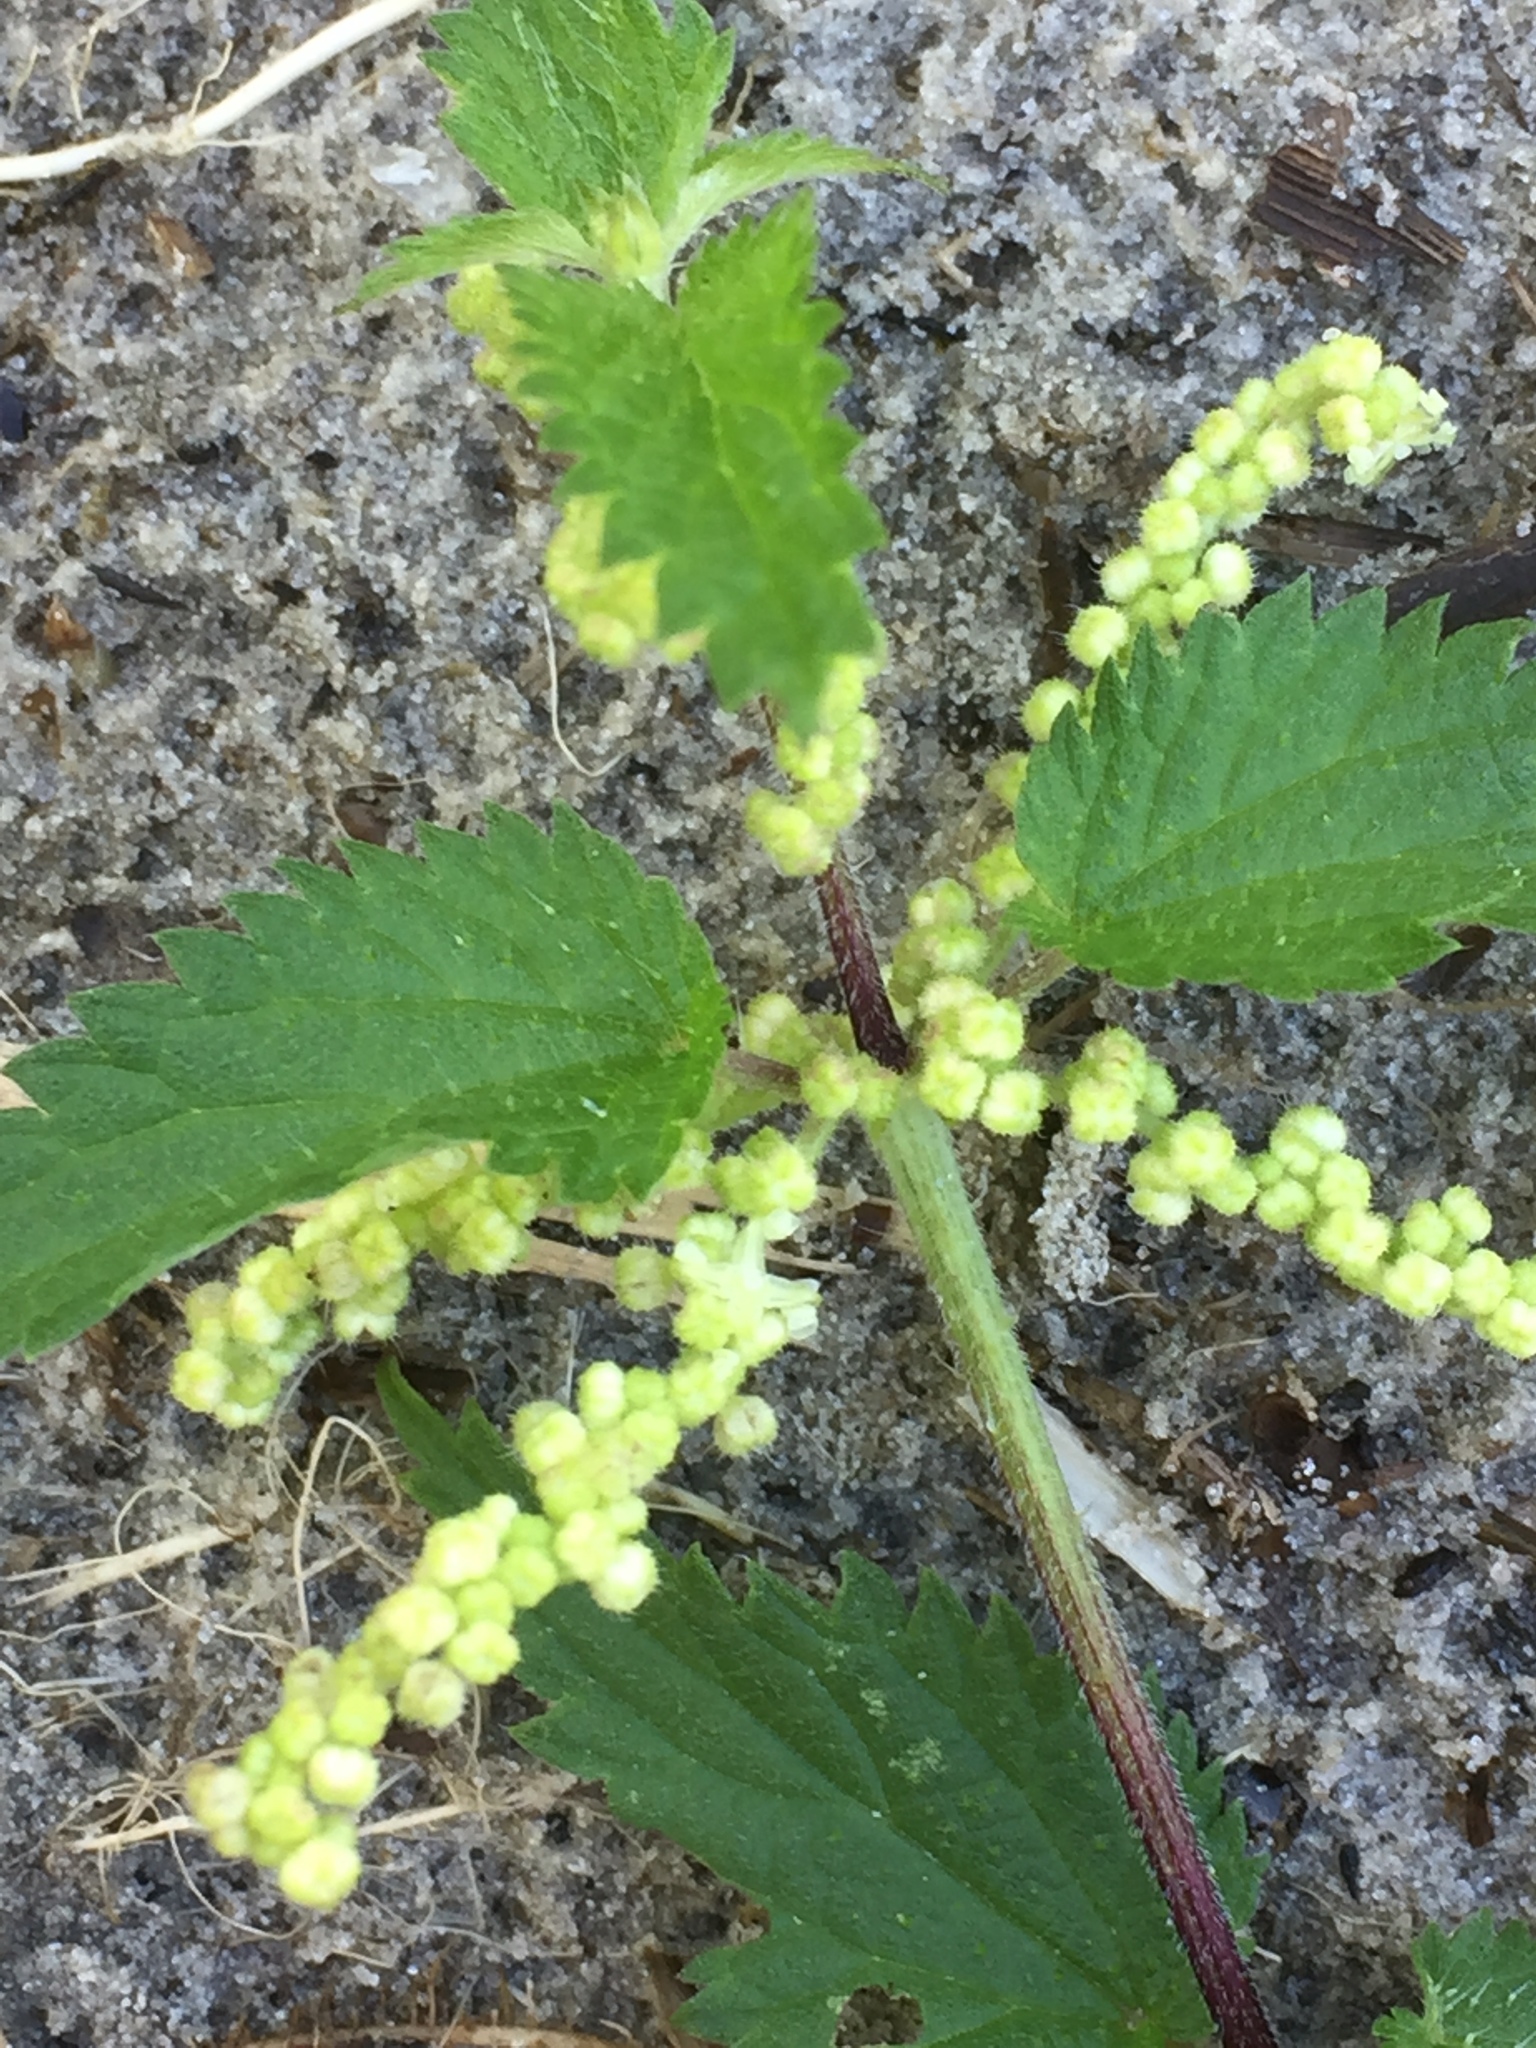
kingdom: Plantae
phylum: Tracheophyta
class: Magnoliopsida
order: Rosales
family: Urticaceae
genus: Urtica
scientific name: Urtica dioica
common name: Common nettle
